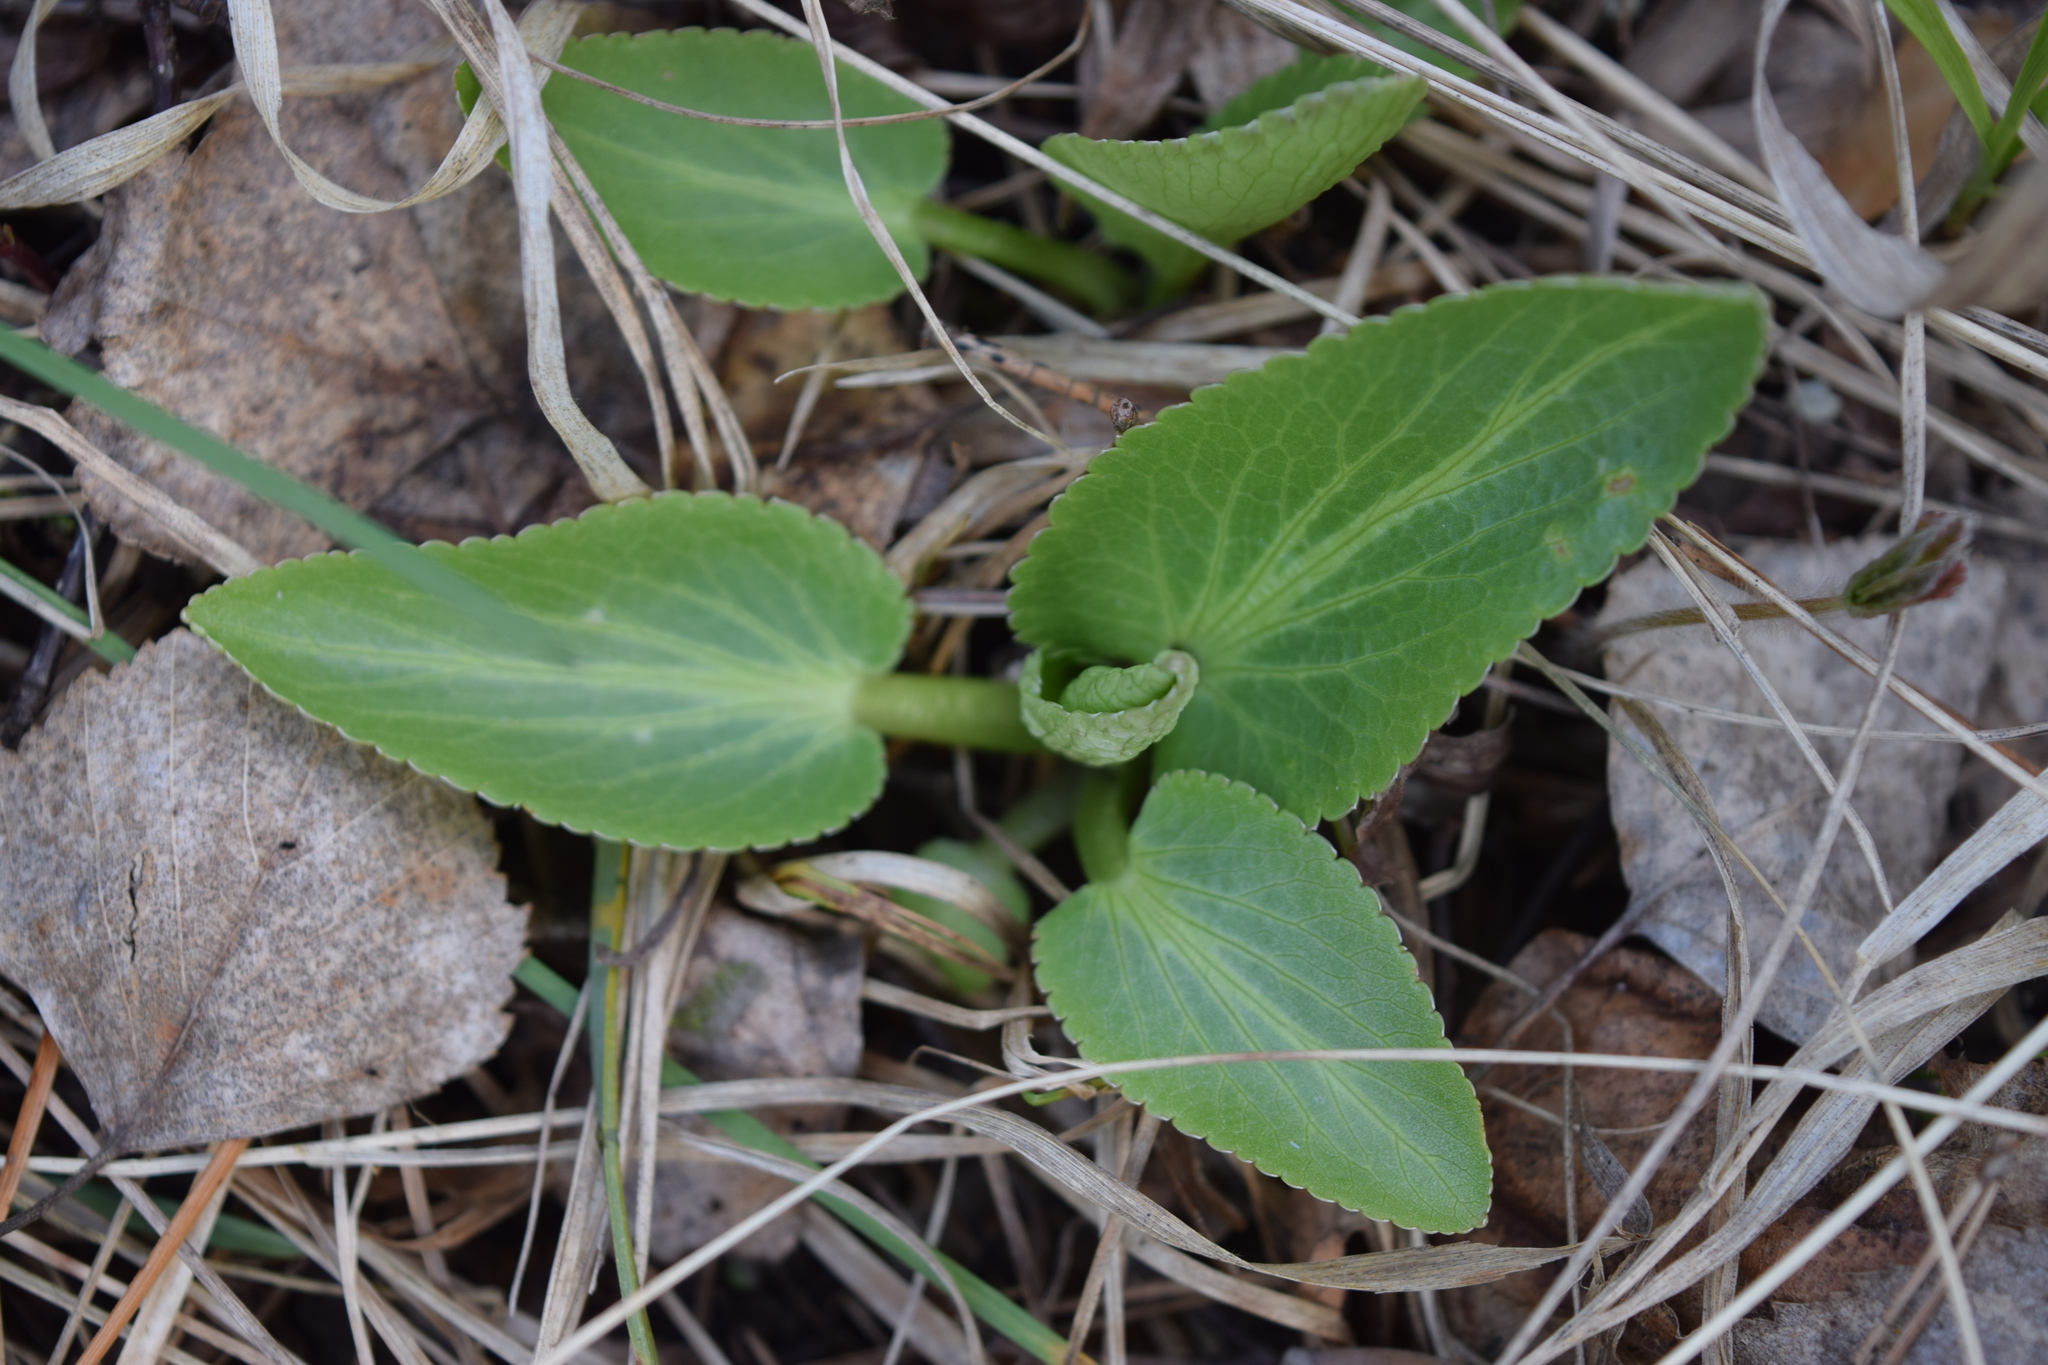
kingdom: Plantae
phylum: Tracheophyta
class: Magnoliopsida
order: Apiales
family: Apiaceae
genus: Eryngium
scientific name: Eryngium planum
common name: Blue eryngo
